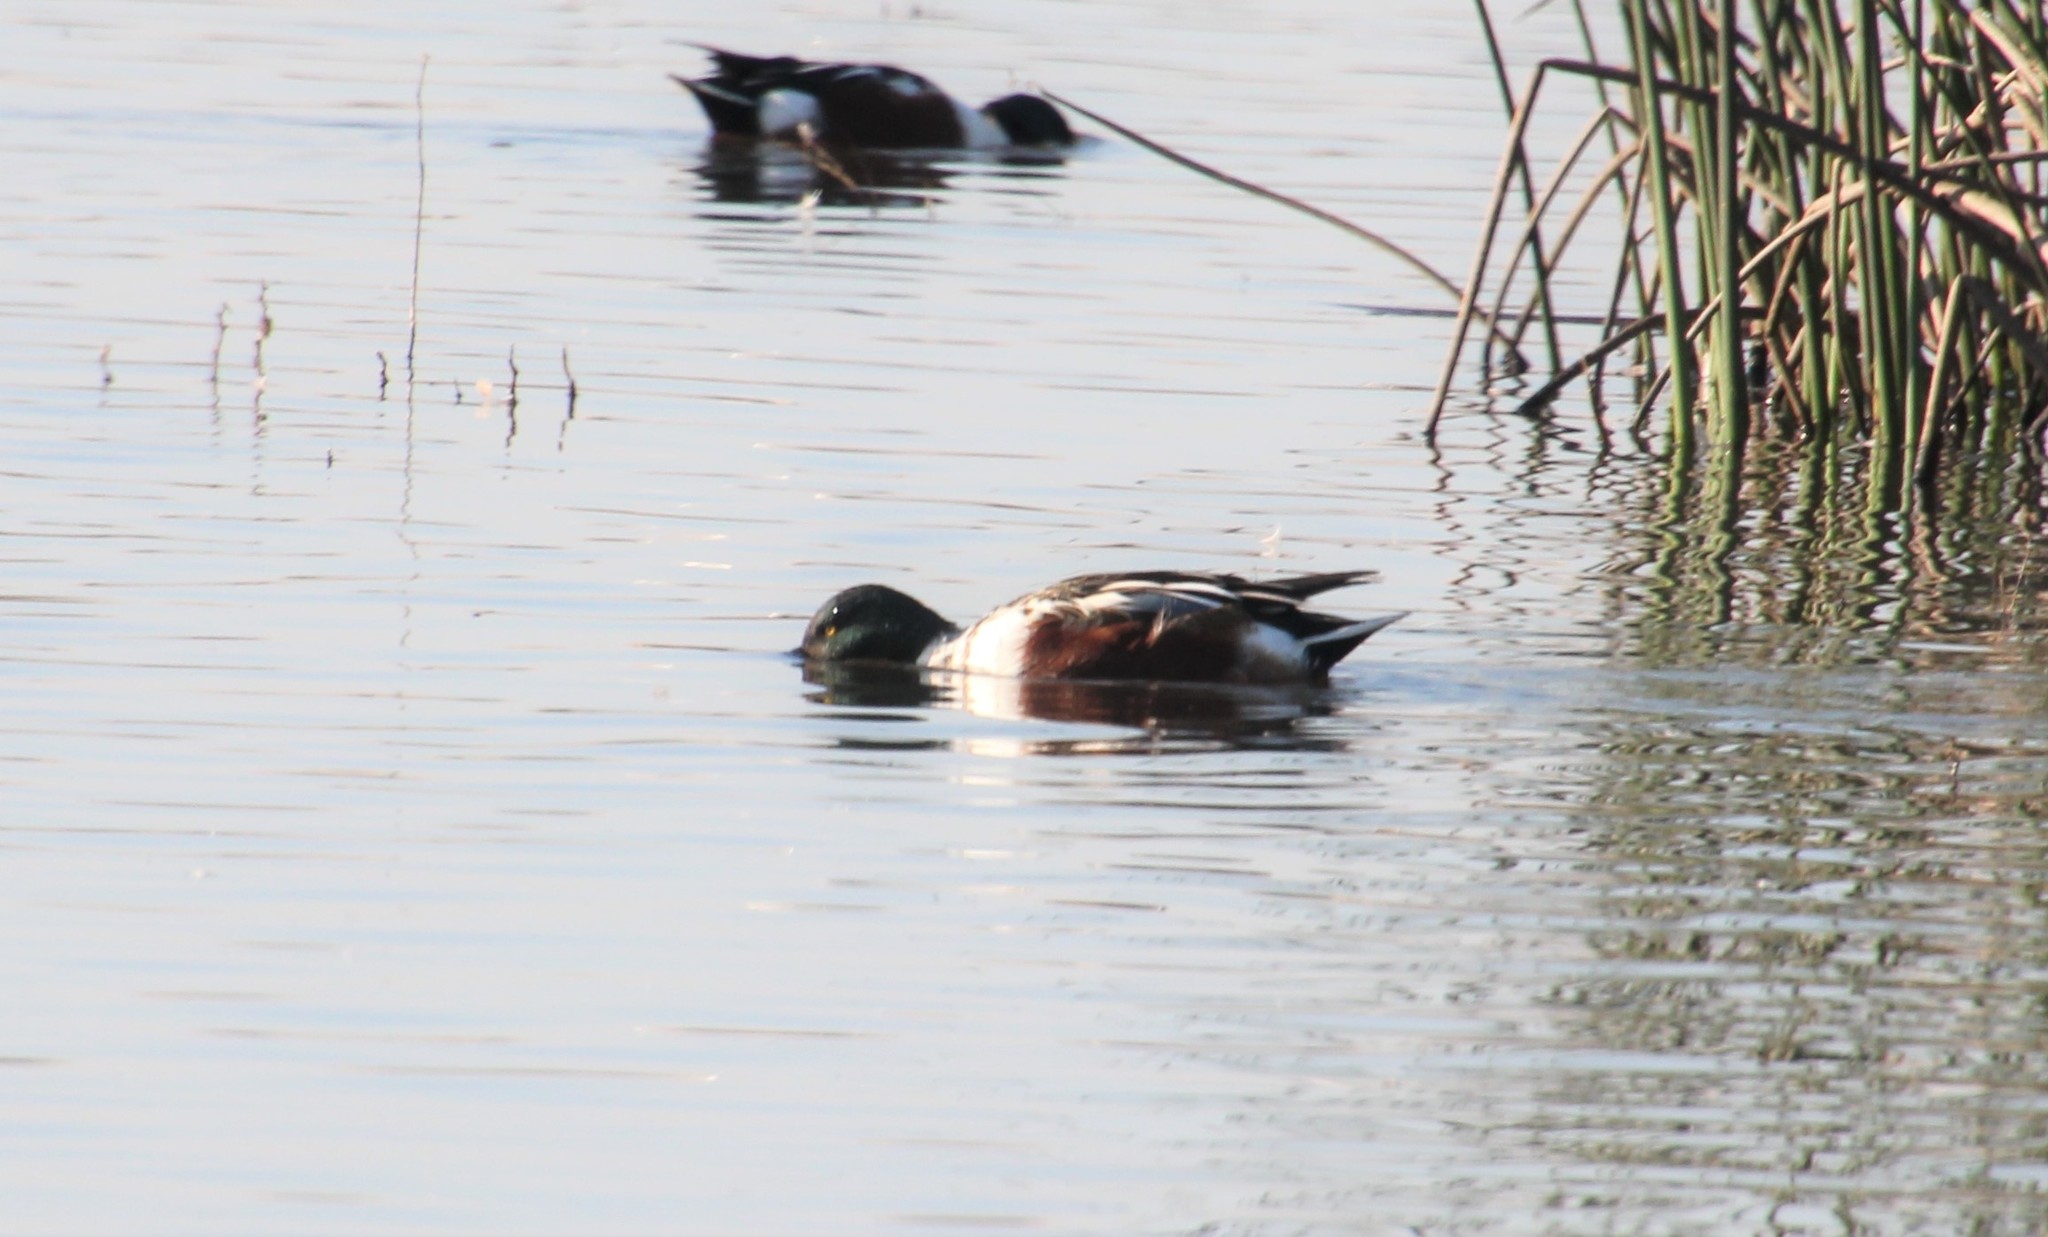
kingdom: Animalia
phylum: Chordata
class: Aves
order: Anseriformes
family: Anatidae
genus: Spatula
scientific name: Spatula clypeata
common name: Northern shoveler
